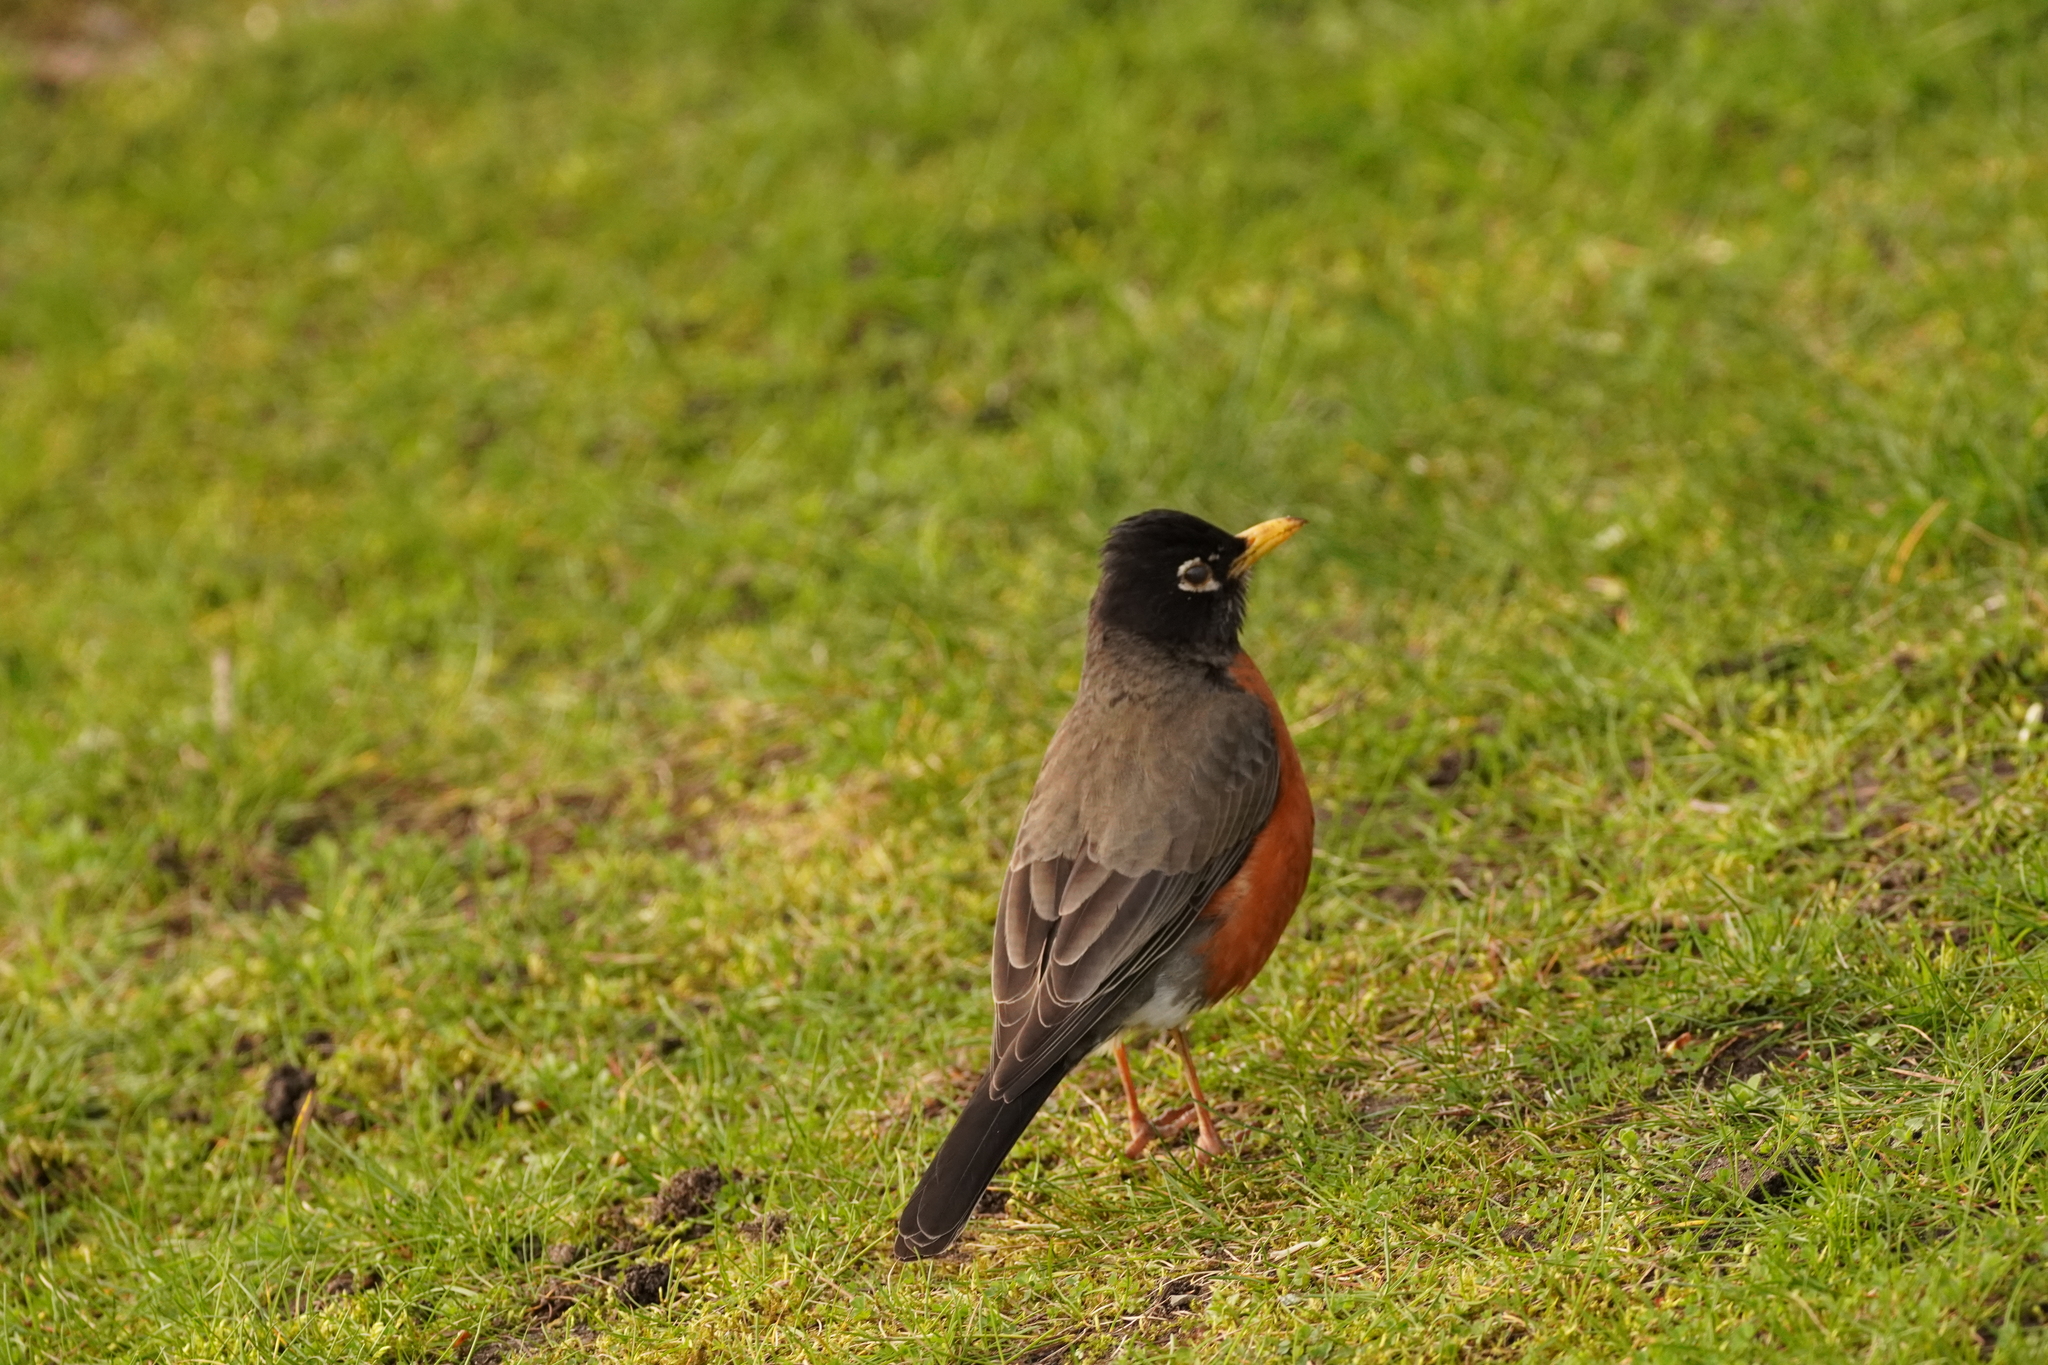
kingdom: Animalia
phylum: Chordata
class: Aves
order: Passeriformes
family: Turdidae
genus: Turdus
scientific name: Turdus migratorius
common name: American robin
